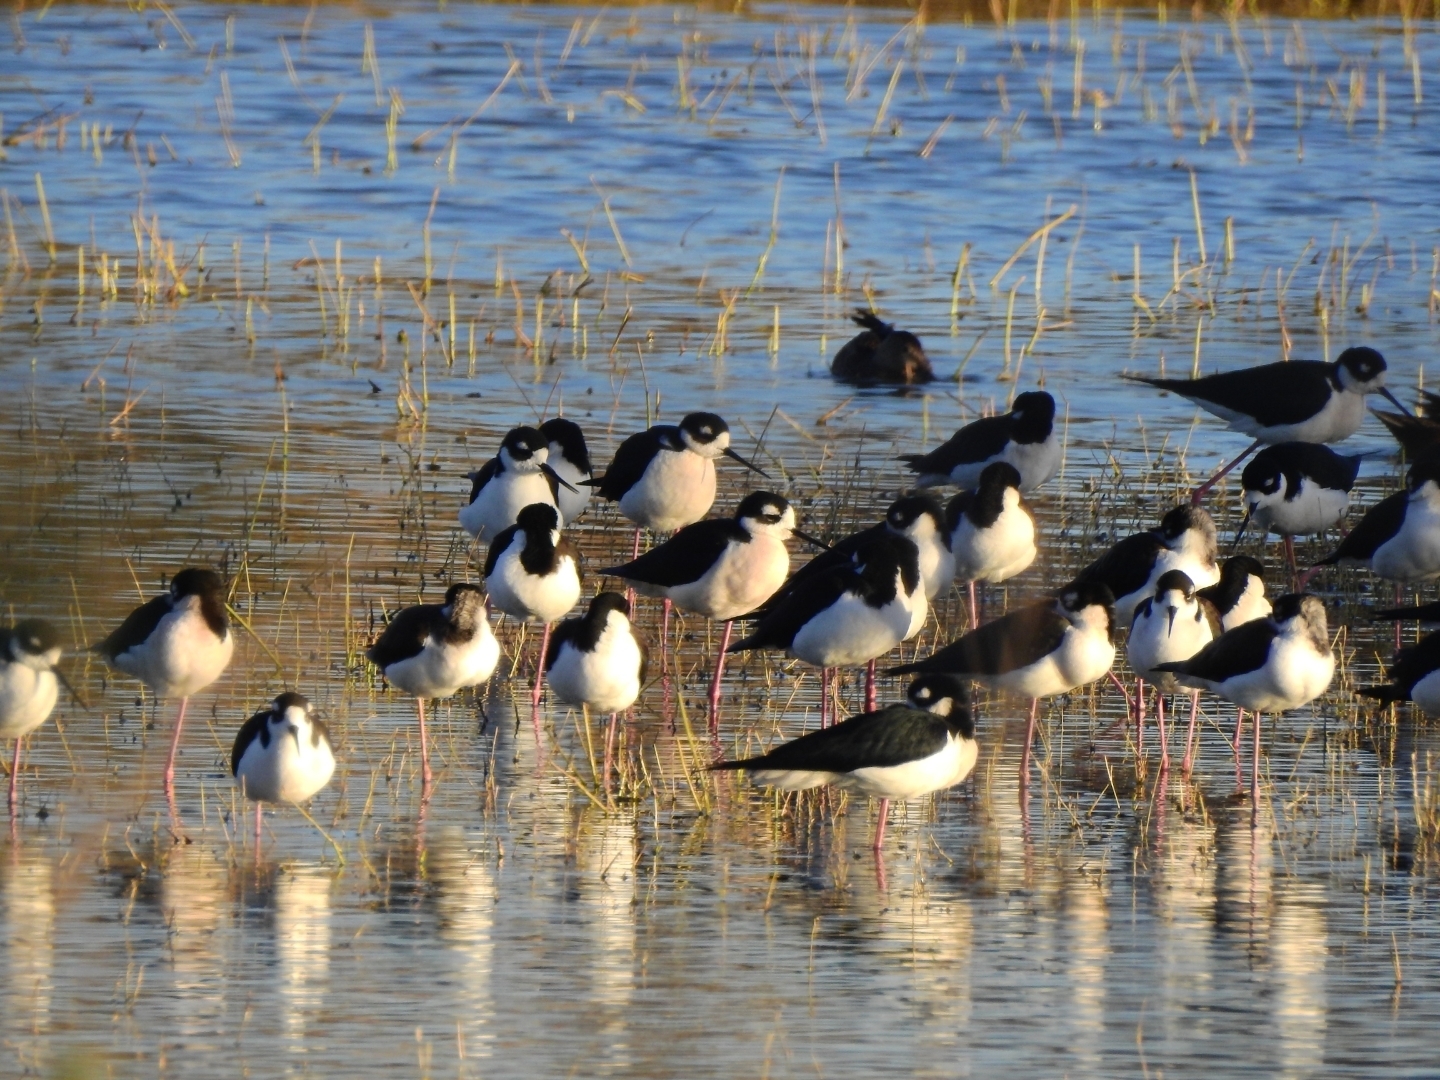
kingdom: Animalia
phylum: Chordata
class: Aves
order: Charadriiformes
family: Recurvirostridae
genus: Himantopus
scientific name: Himantopus mexicanus
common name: Black-necked stilt
